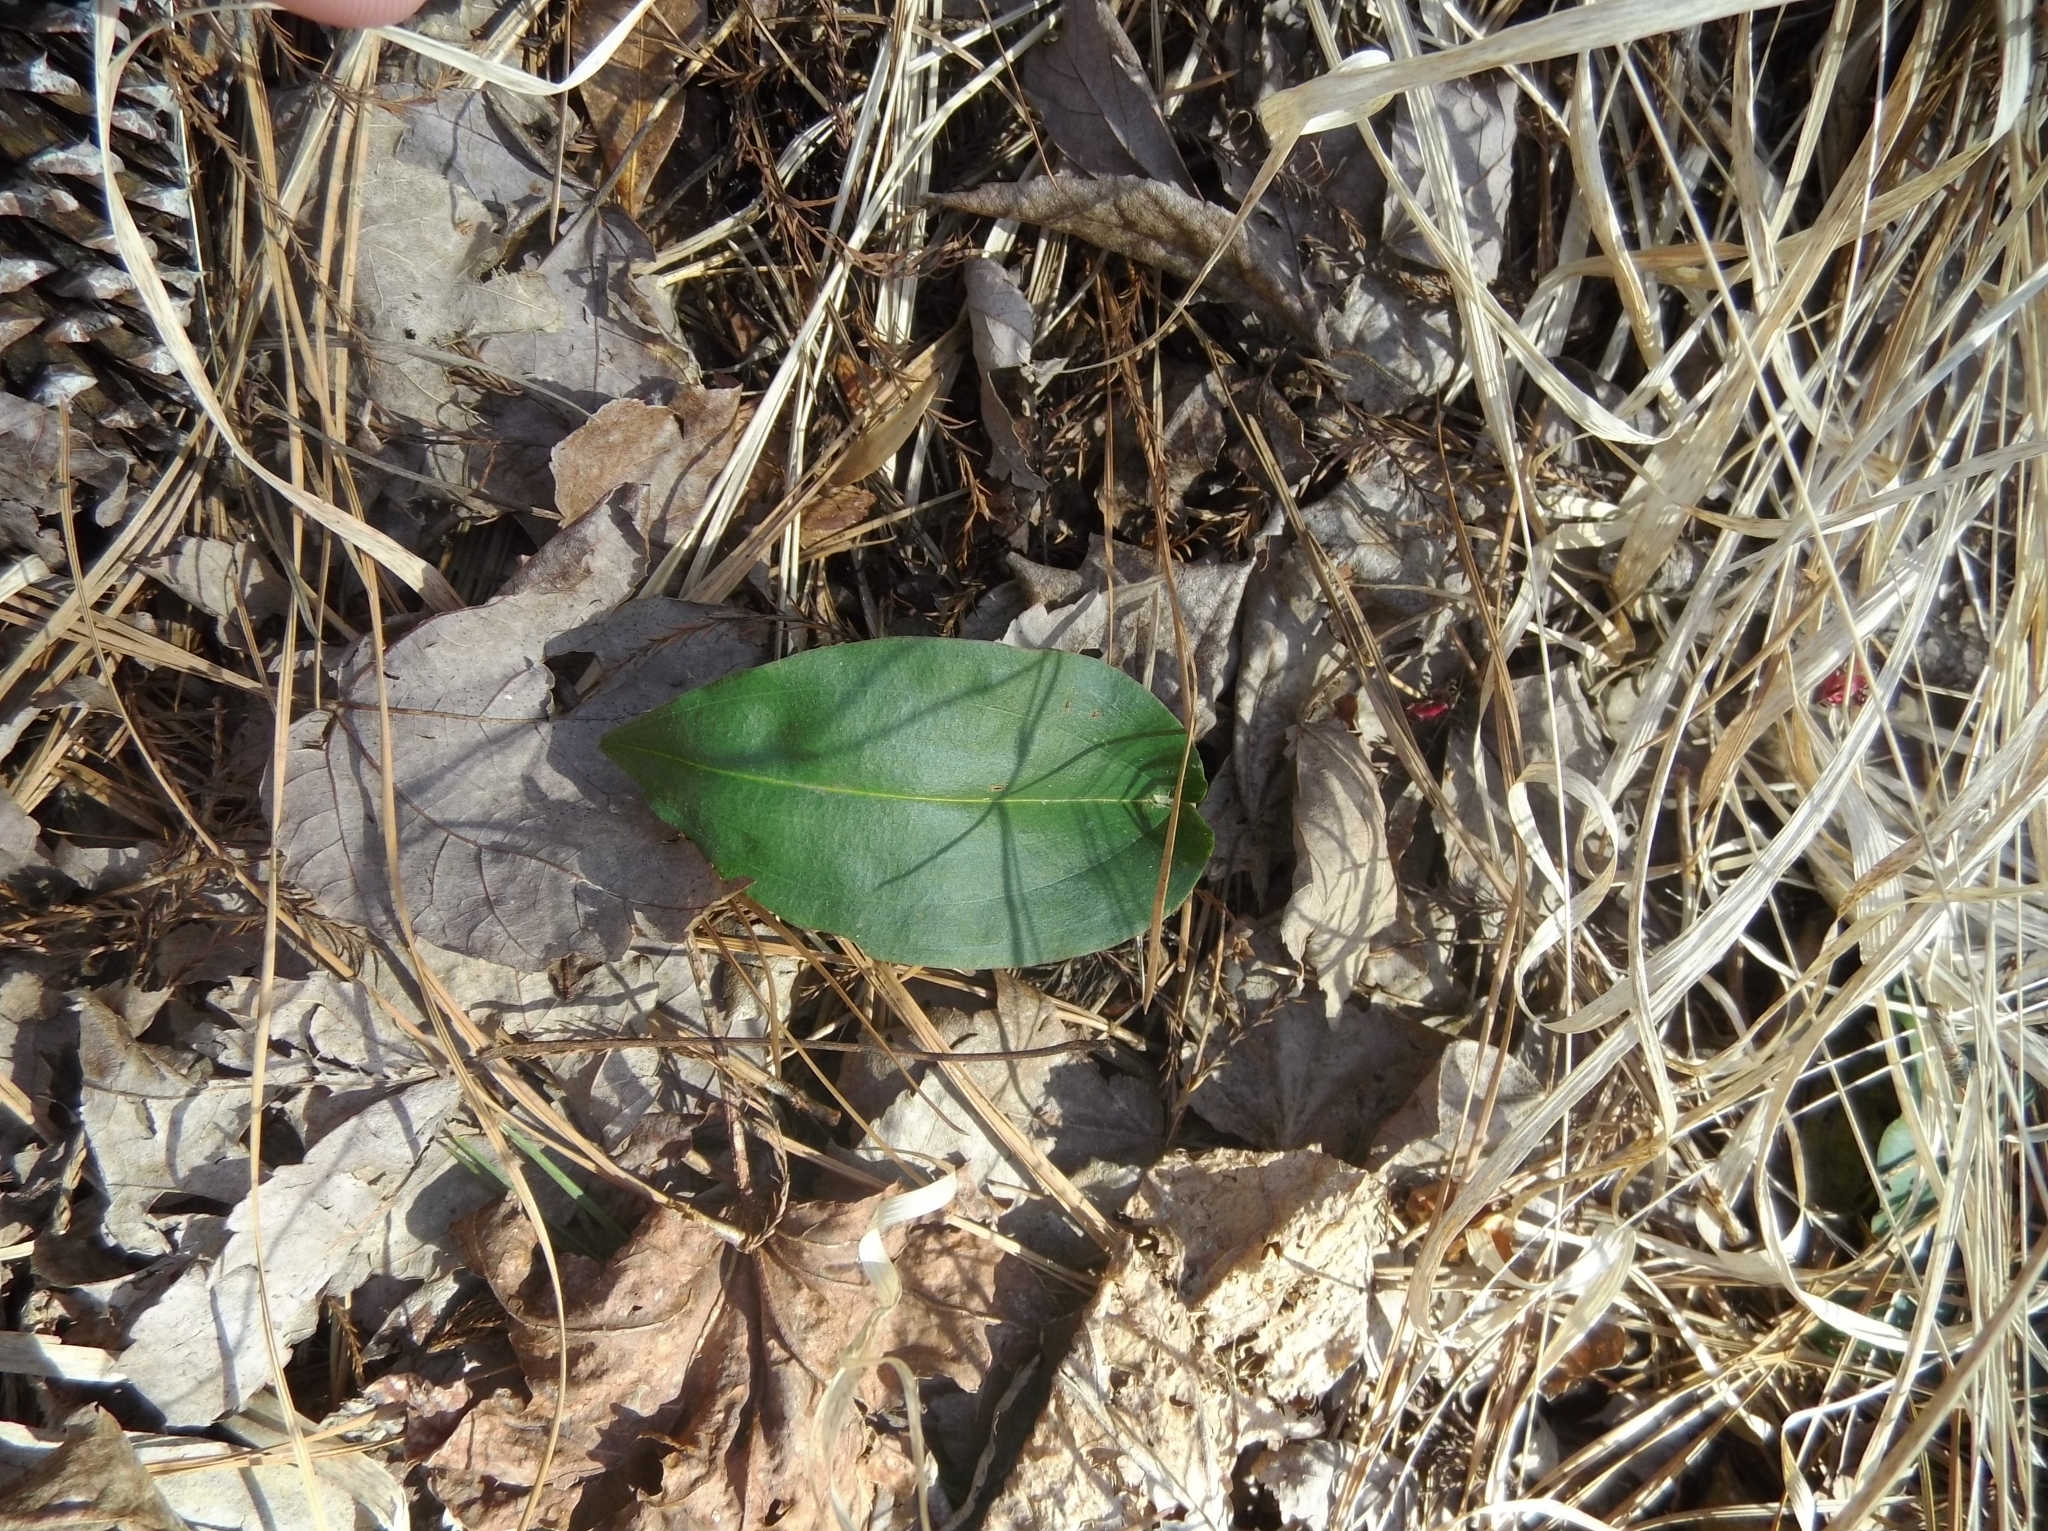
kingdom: Plantae
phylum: Tracheophyta
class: Liliopsida
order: Asparagales
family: Orchidaceae
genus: Tipularia
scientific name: Tipularia discolor
